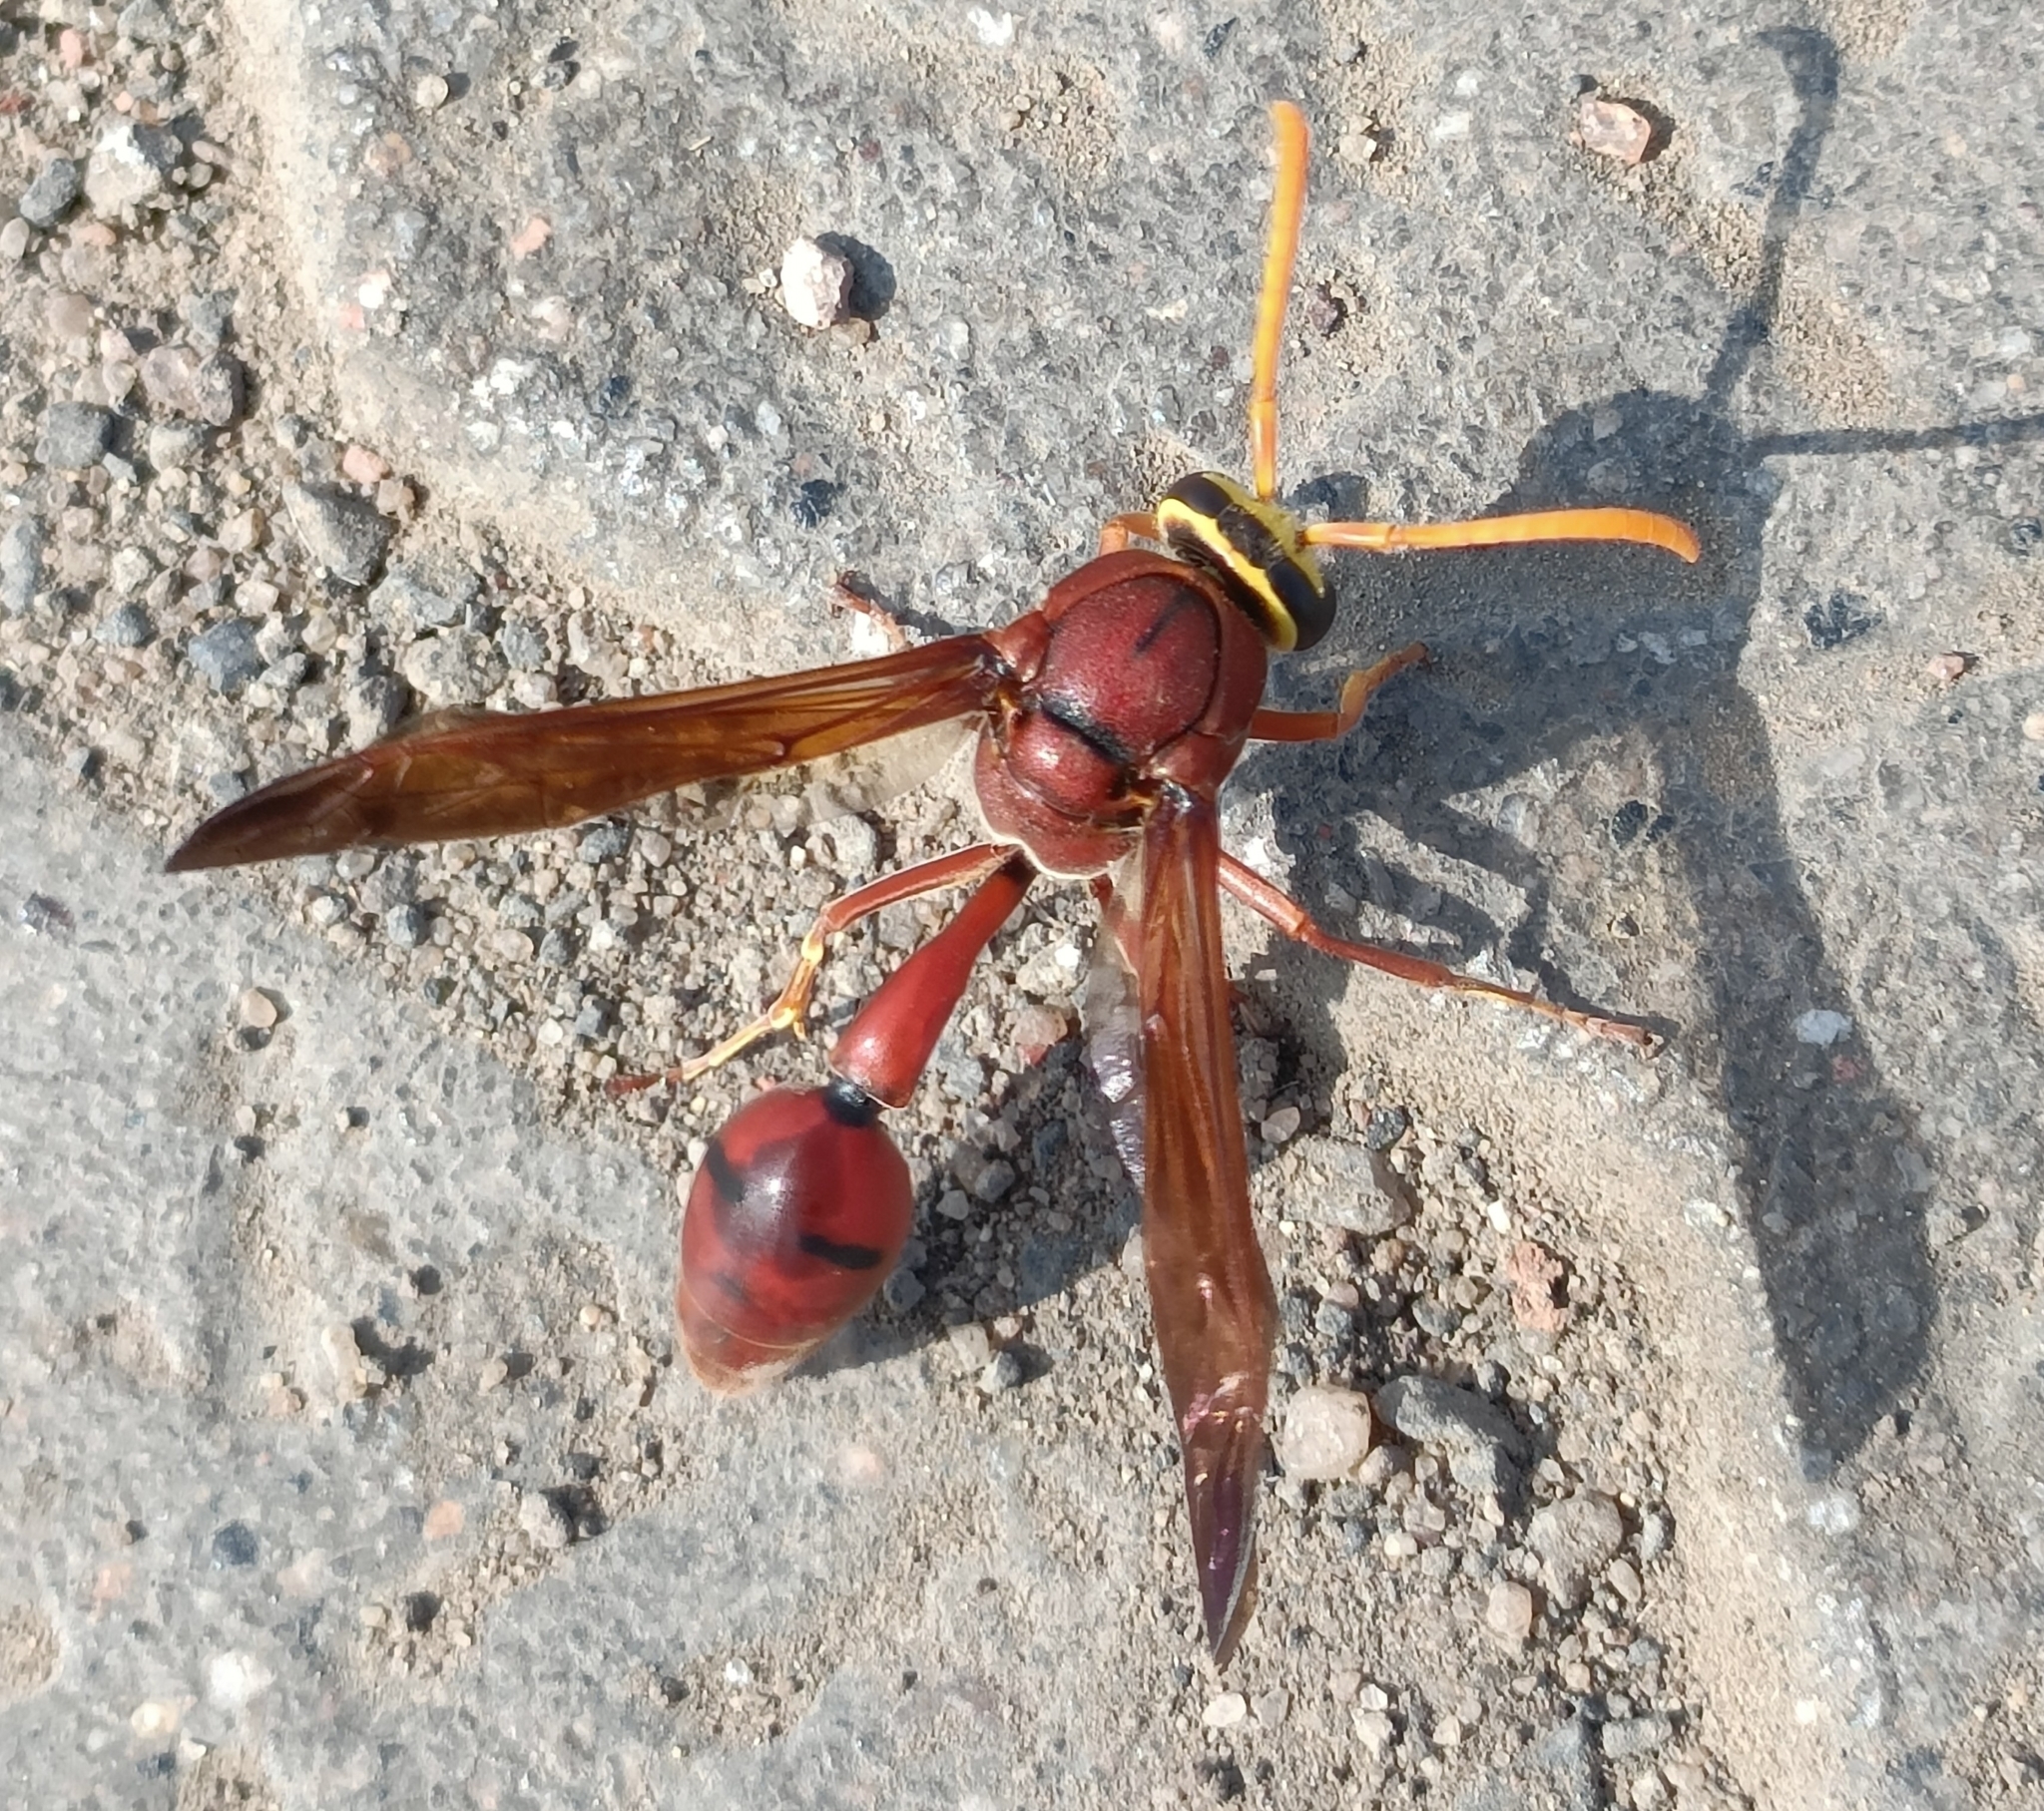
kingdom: Animalia
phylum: Arthropoda
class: Insecta
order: Hymenoptera
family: Eumenidae
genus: Delta
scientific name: Delta conoideum
